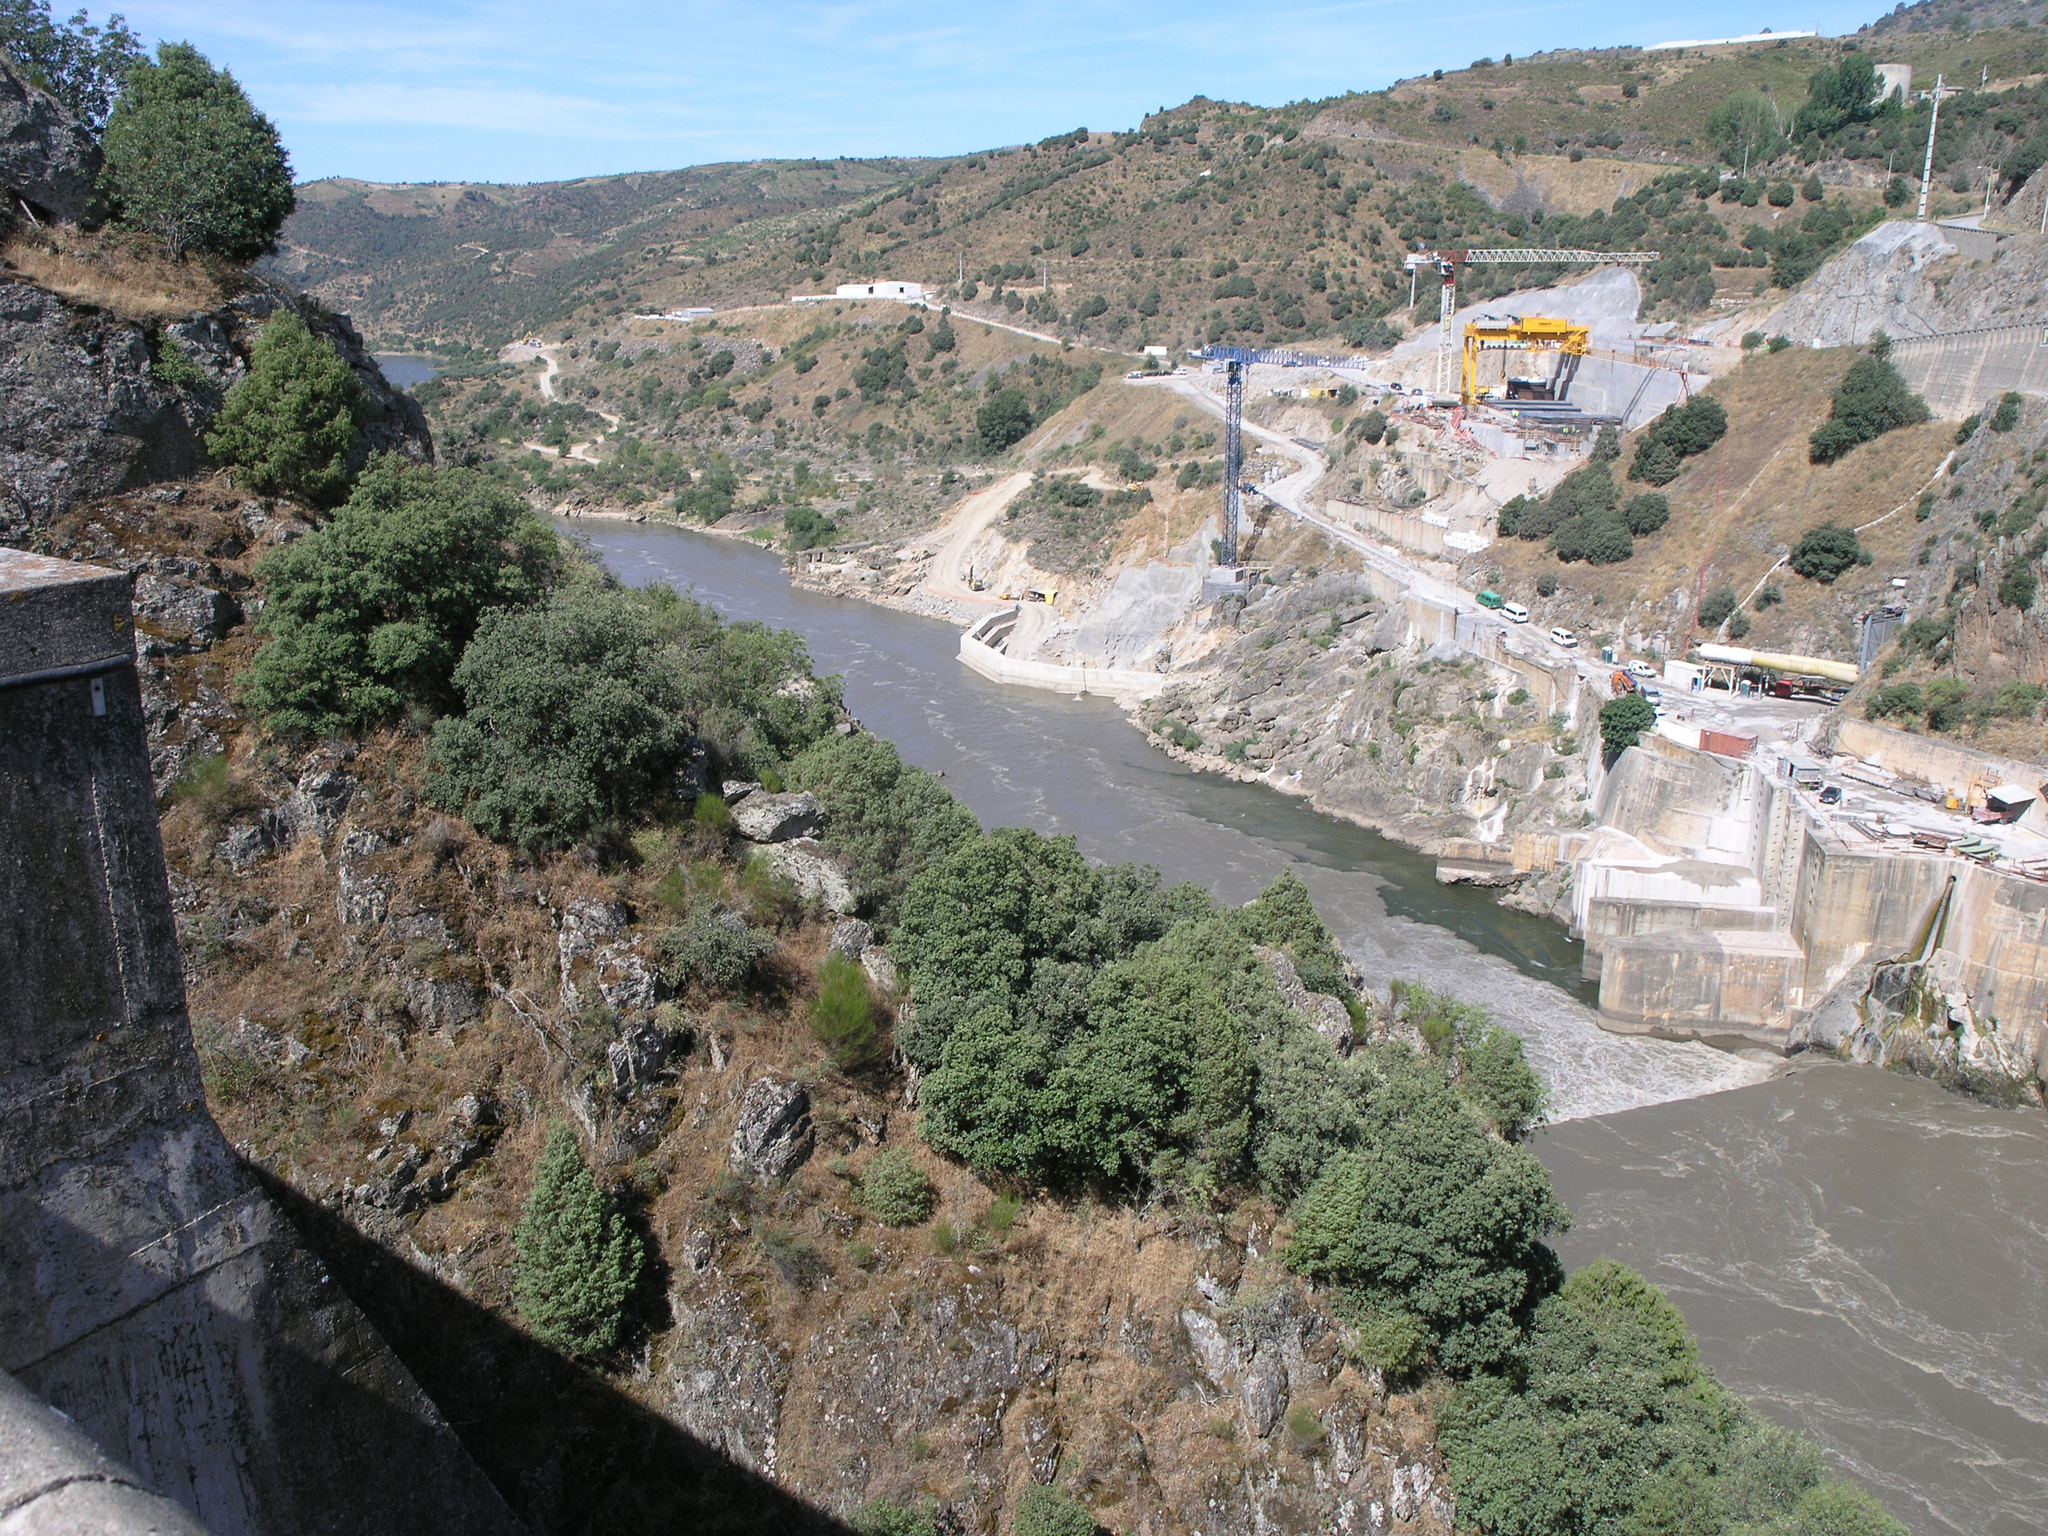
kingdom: Plantae
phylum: Tracheophyta
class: Magnoliopsida
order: Fagales
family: Fagaceae
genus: Quercus
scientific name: Quercus rotundifolia
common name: Holm oak
